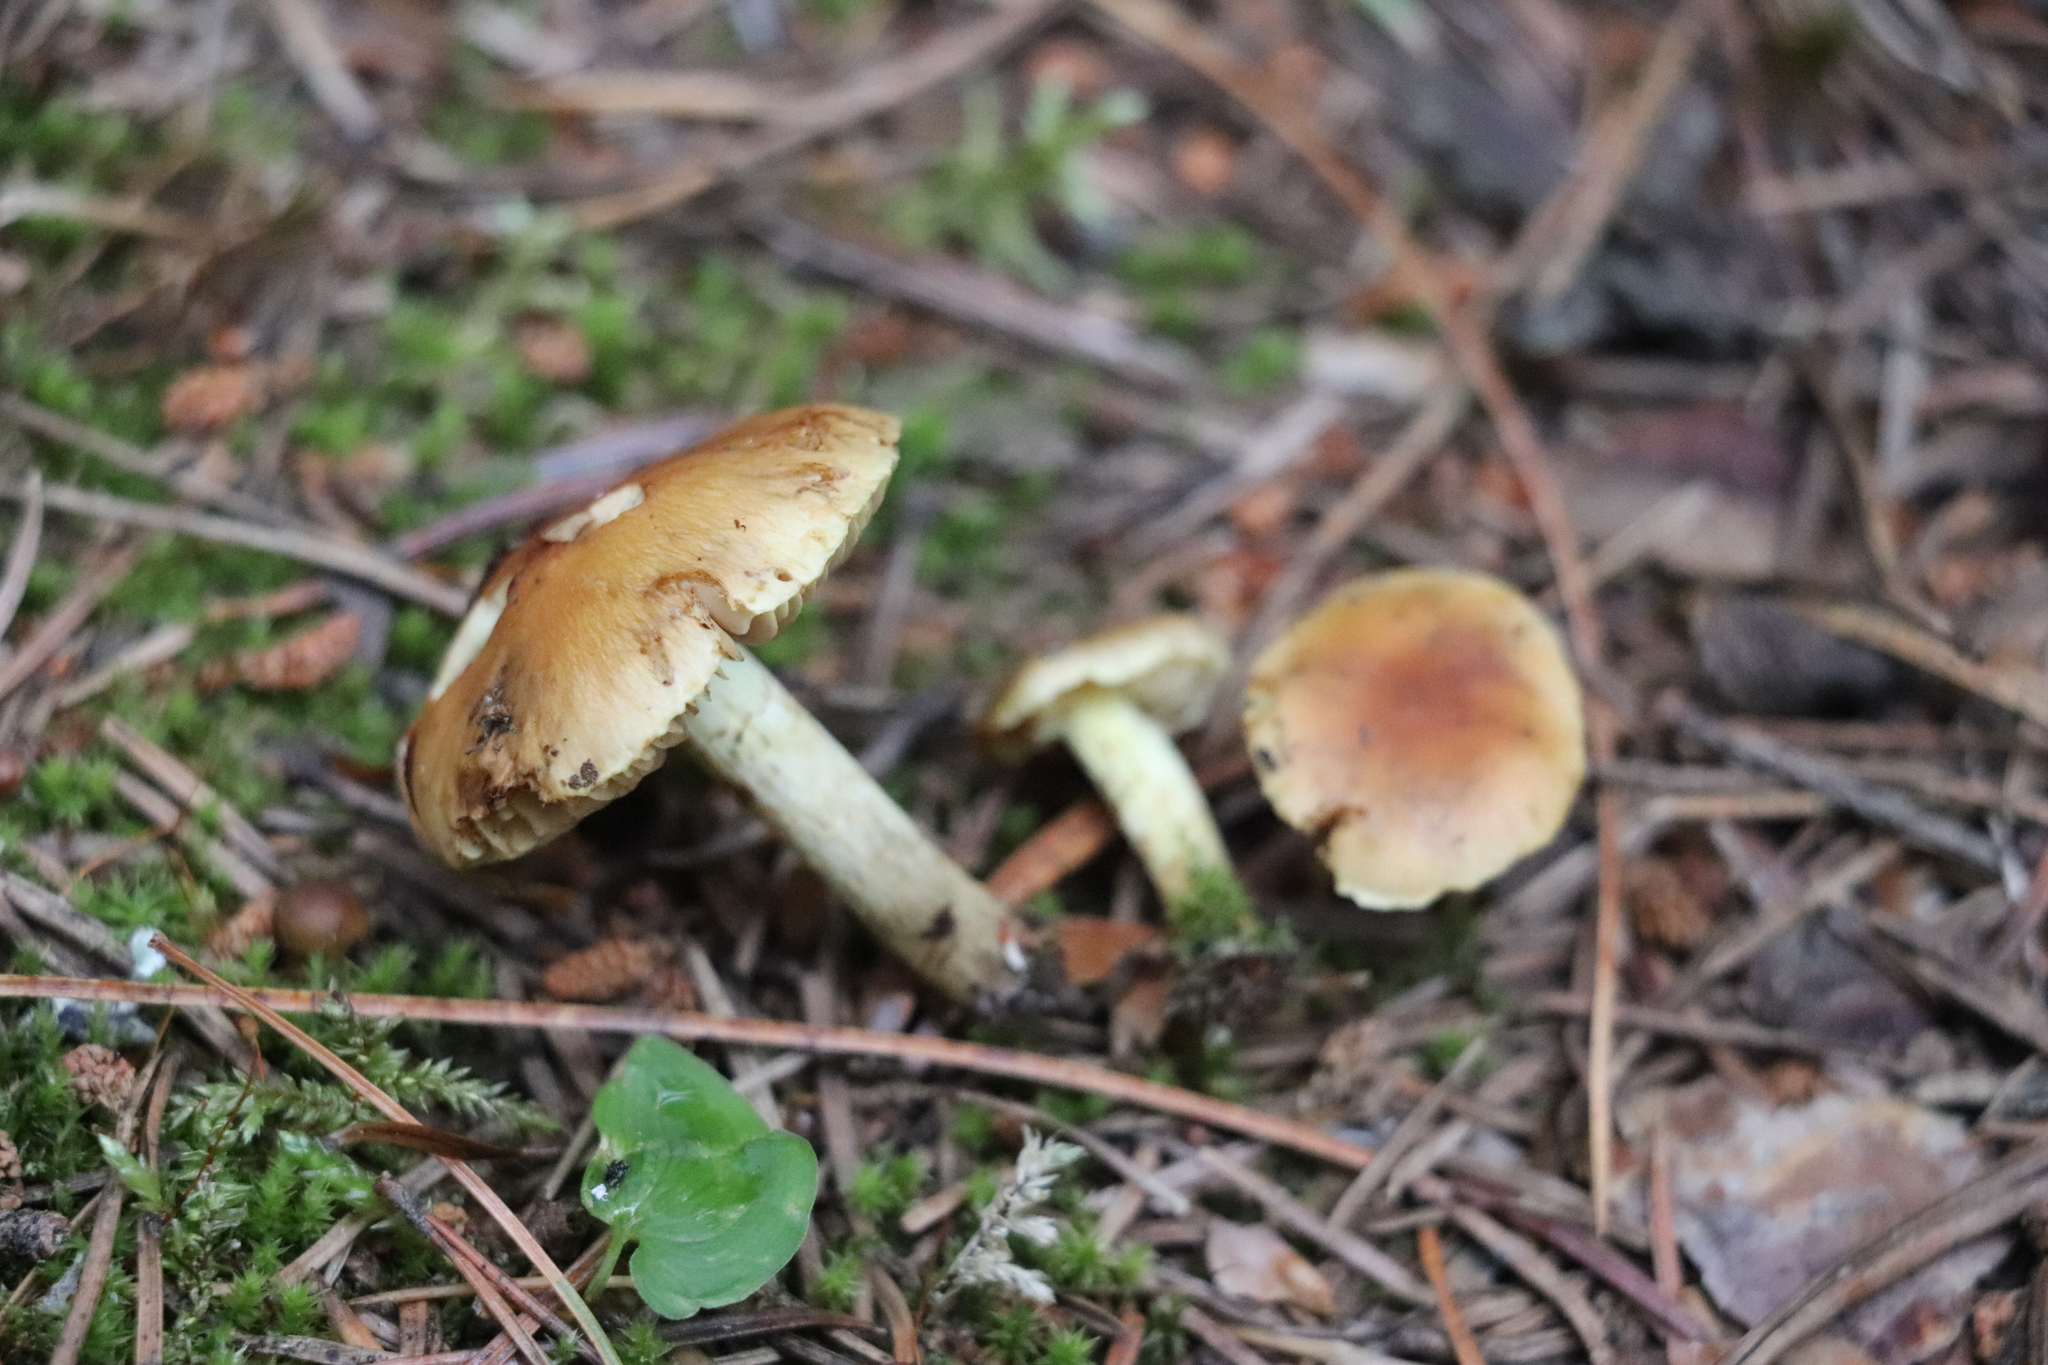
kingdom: Fungi
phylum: Basidiomycota
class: Agaricomycetes
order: Agaricales
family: Strophariaceae
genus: Pholiota
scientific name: Pholiota carbonaria
